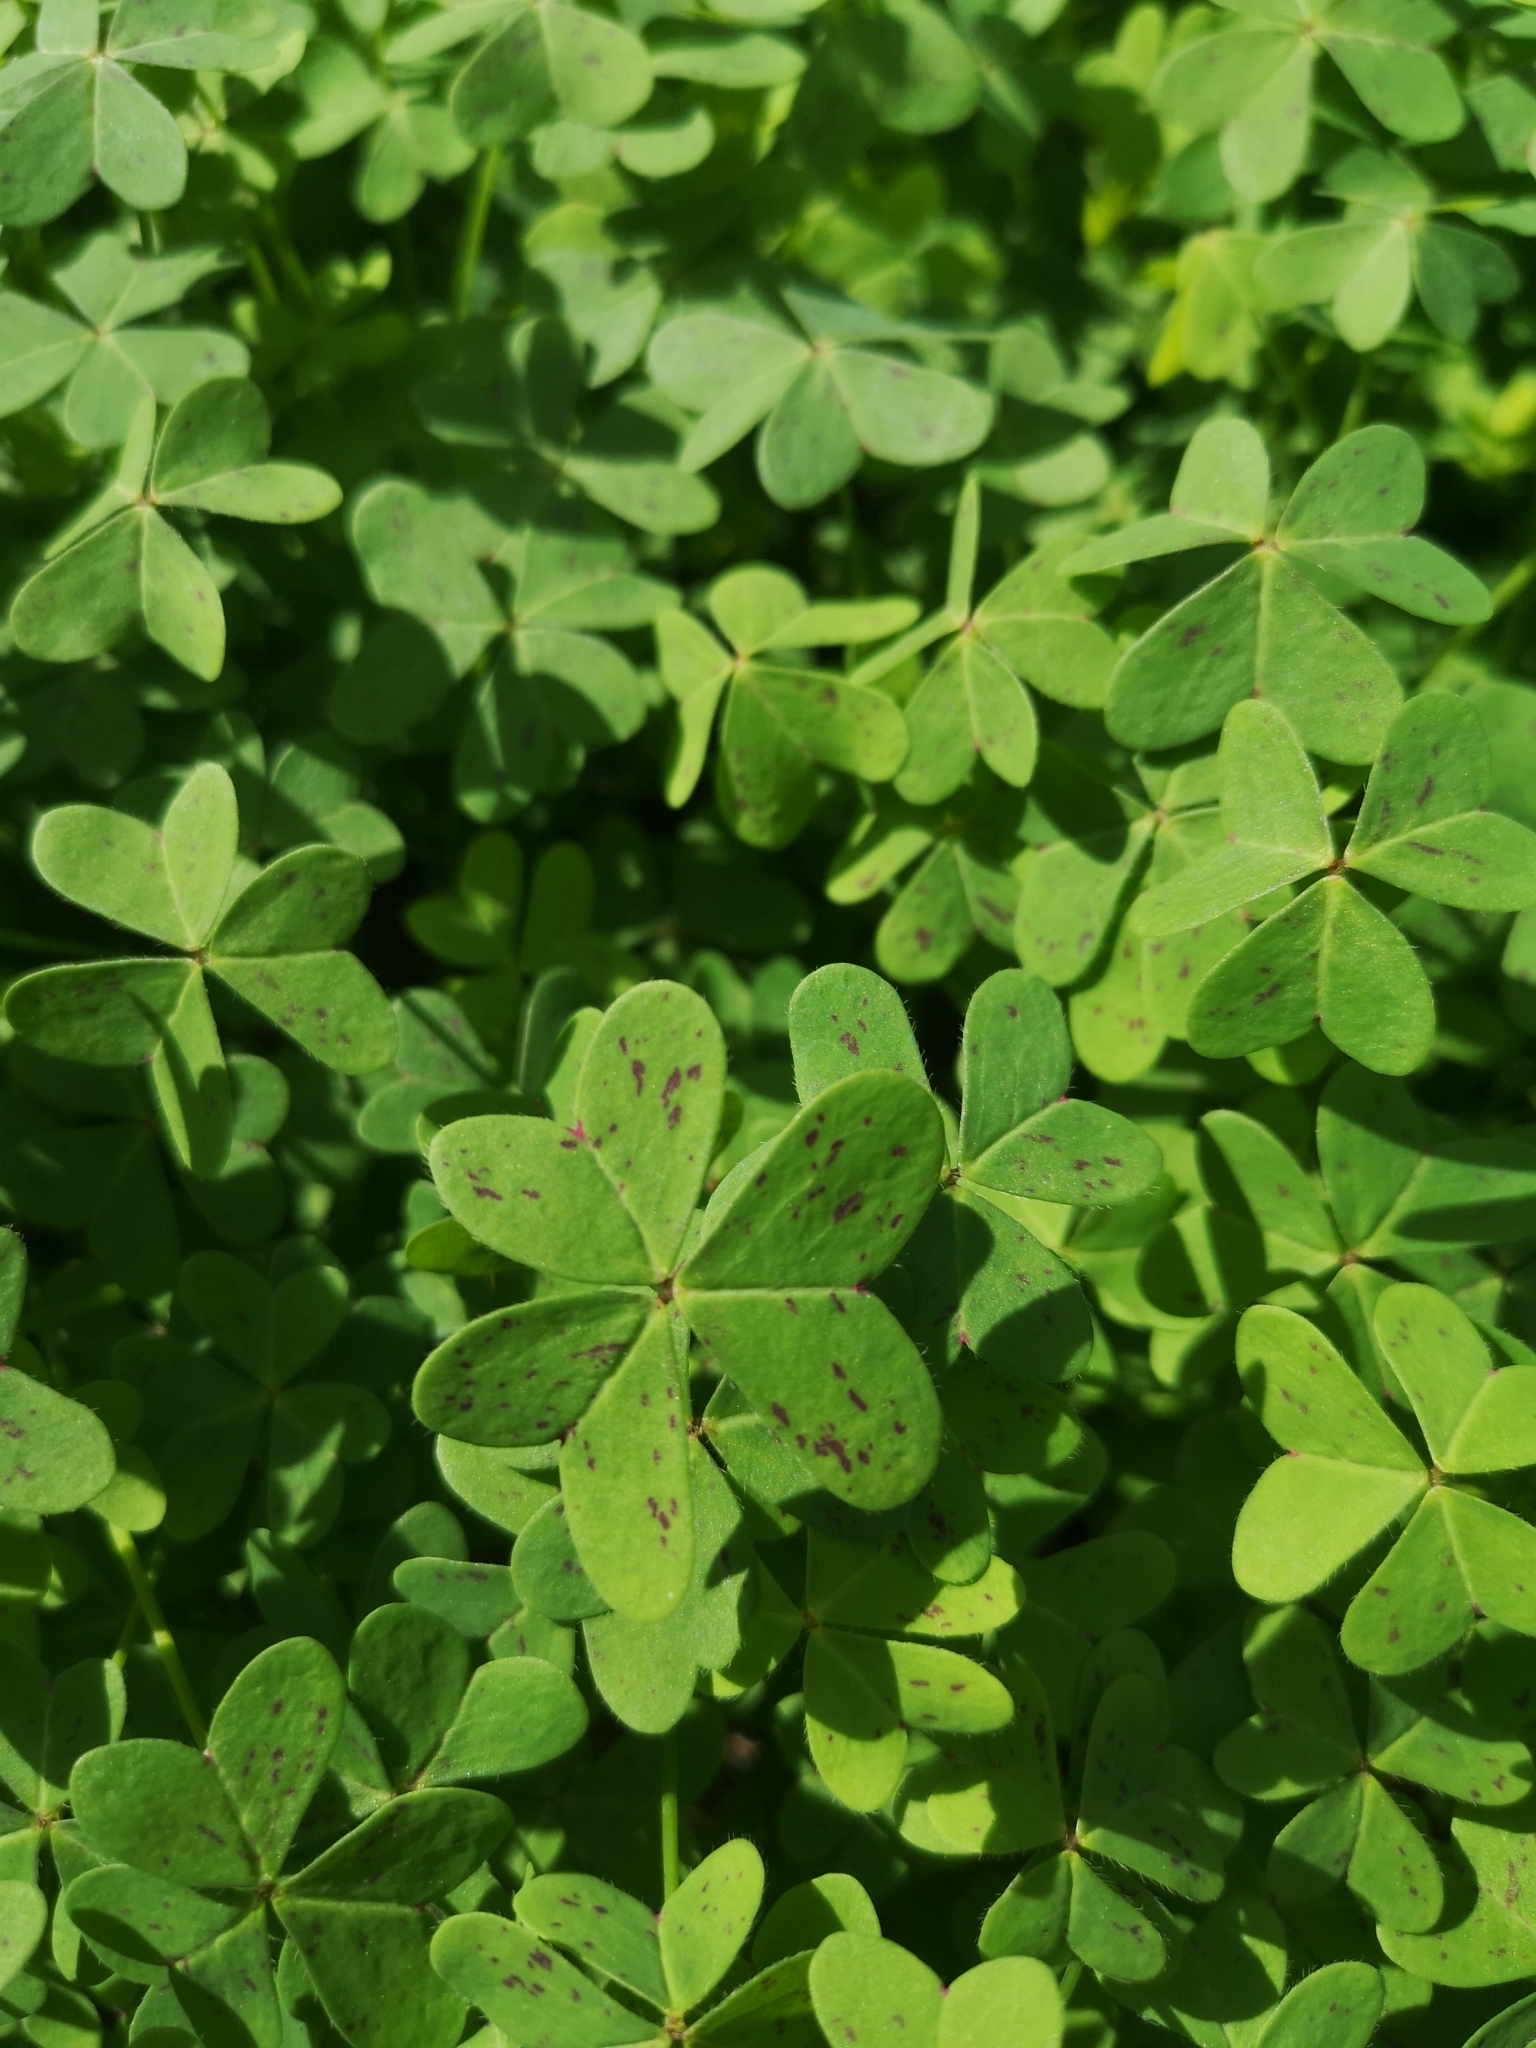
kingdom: Plantae
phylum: Tracheophyta
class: Magnoliopsida
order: Oxalidales
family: Oxalidaceae
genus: Oxalis
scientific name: Oxalis pes-caprae
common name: Bermuda-buttercup
